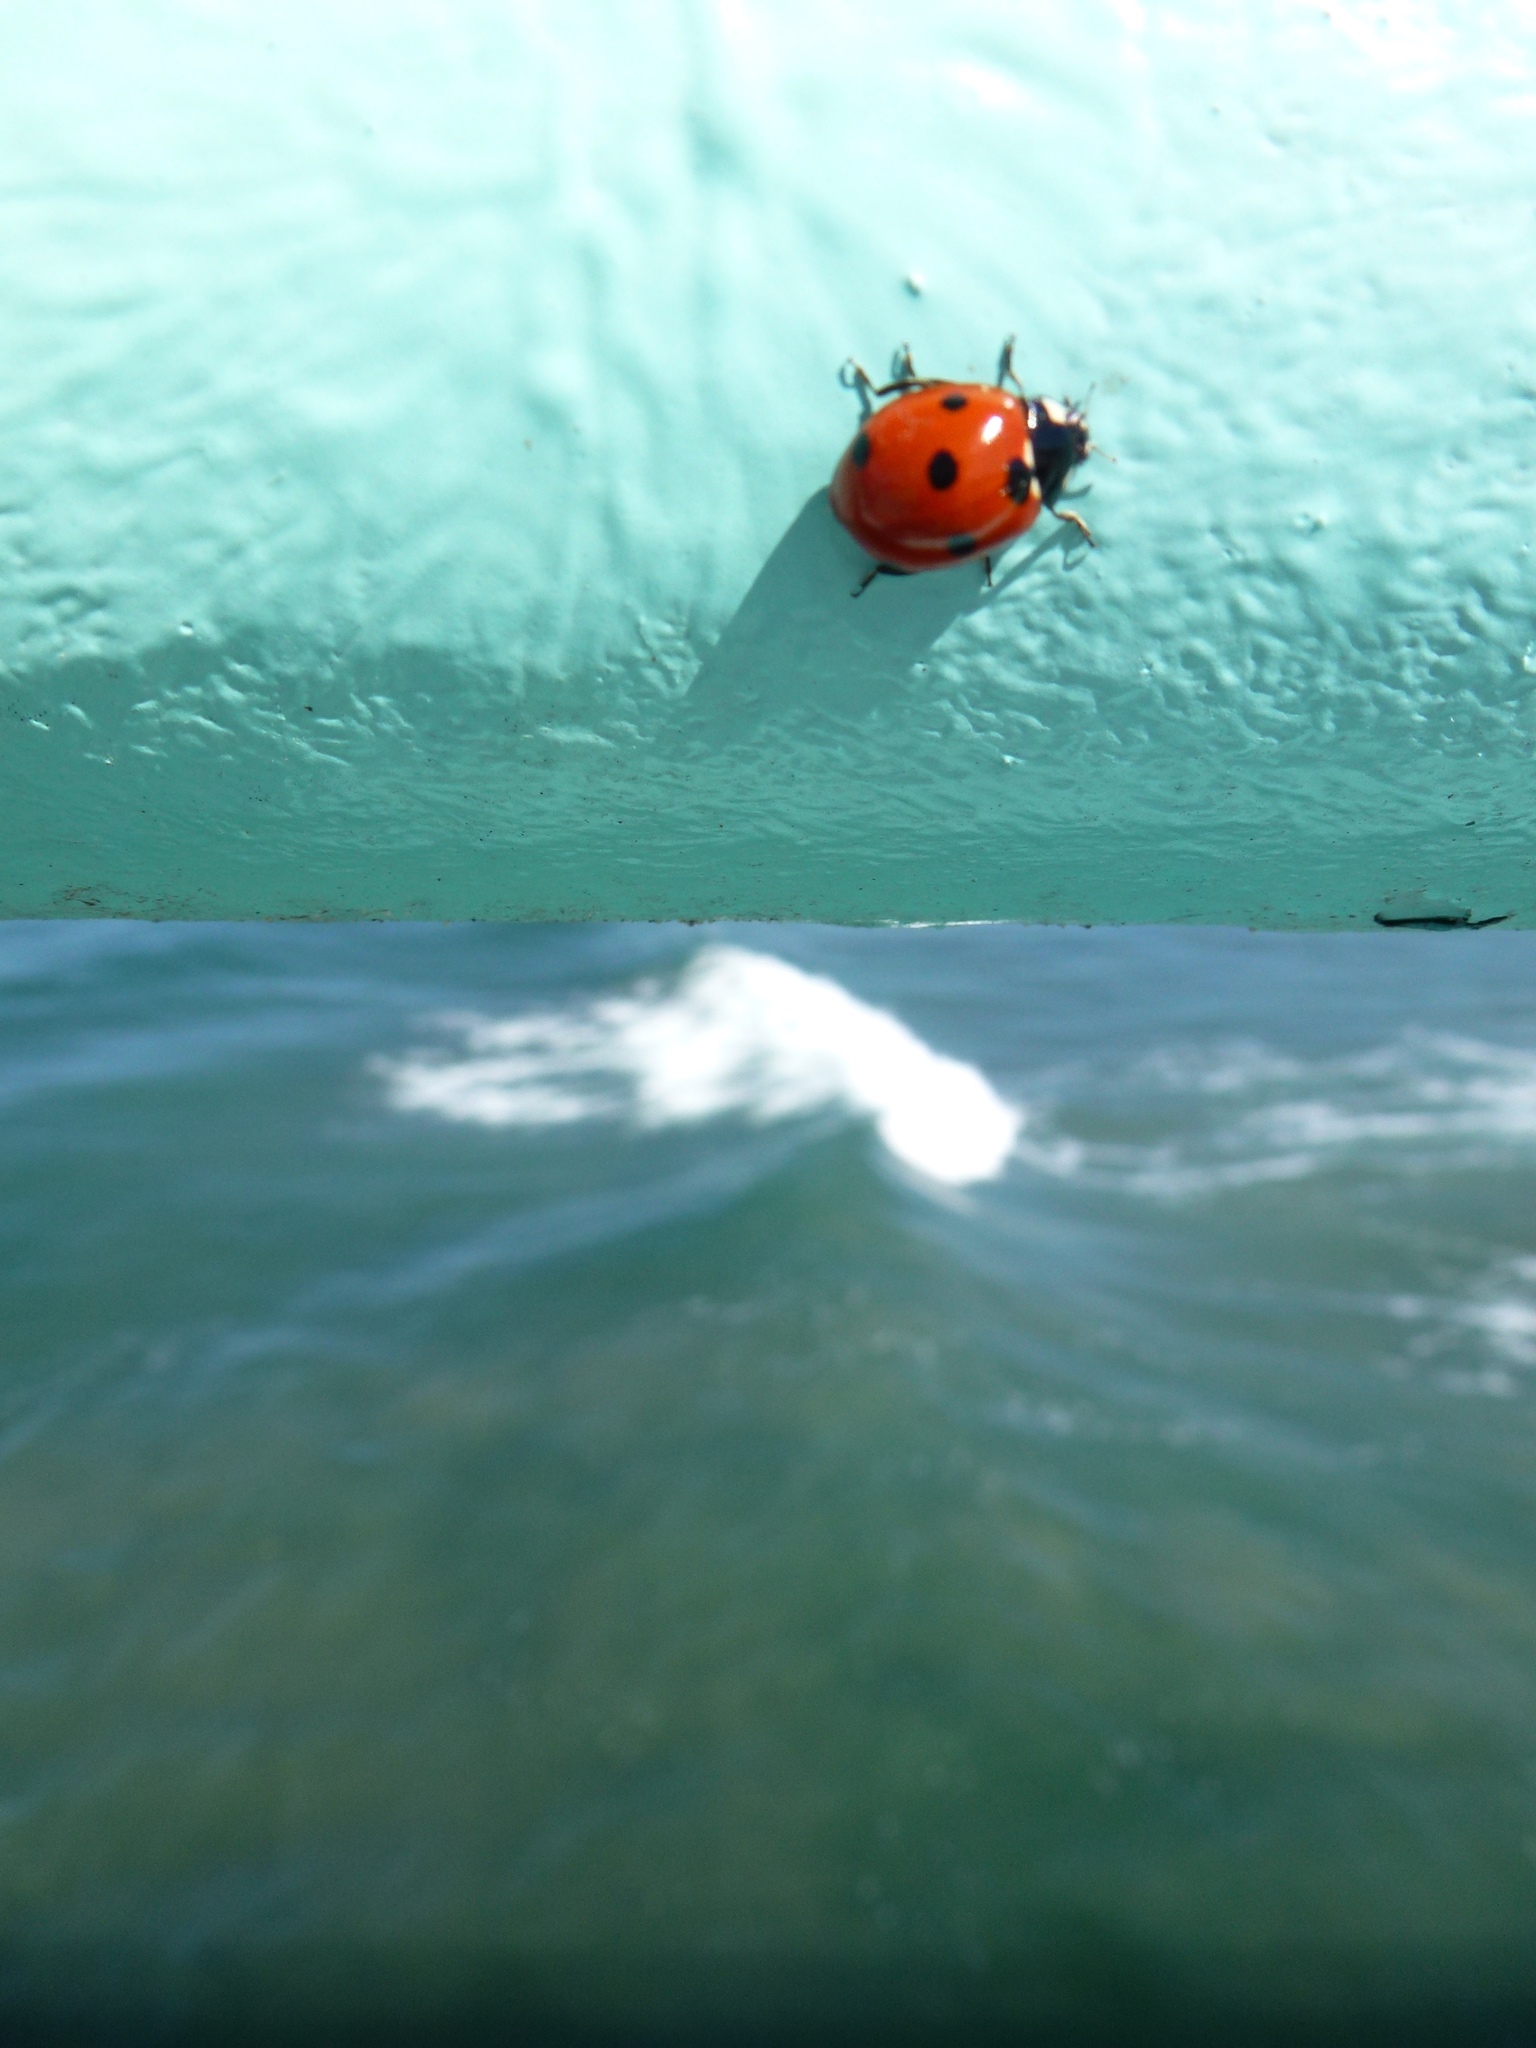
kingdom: Animalia
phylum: Arthropoda
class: Insecta
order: Coleoptera
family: Coccinellidae
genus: Coccinella
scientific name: Coccinella septempunctata
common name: Sevenspotted lady beetle
